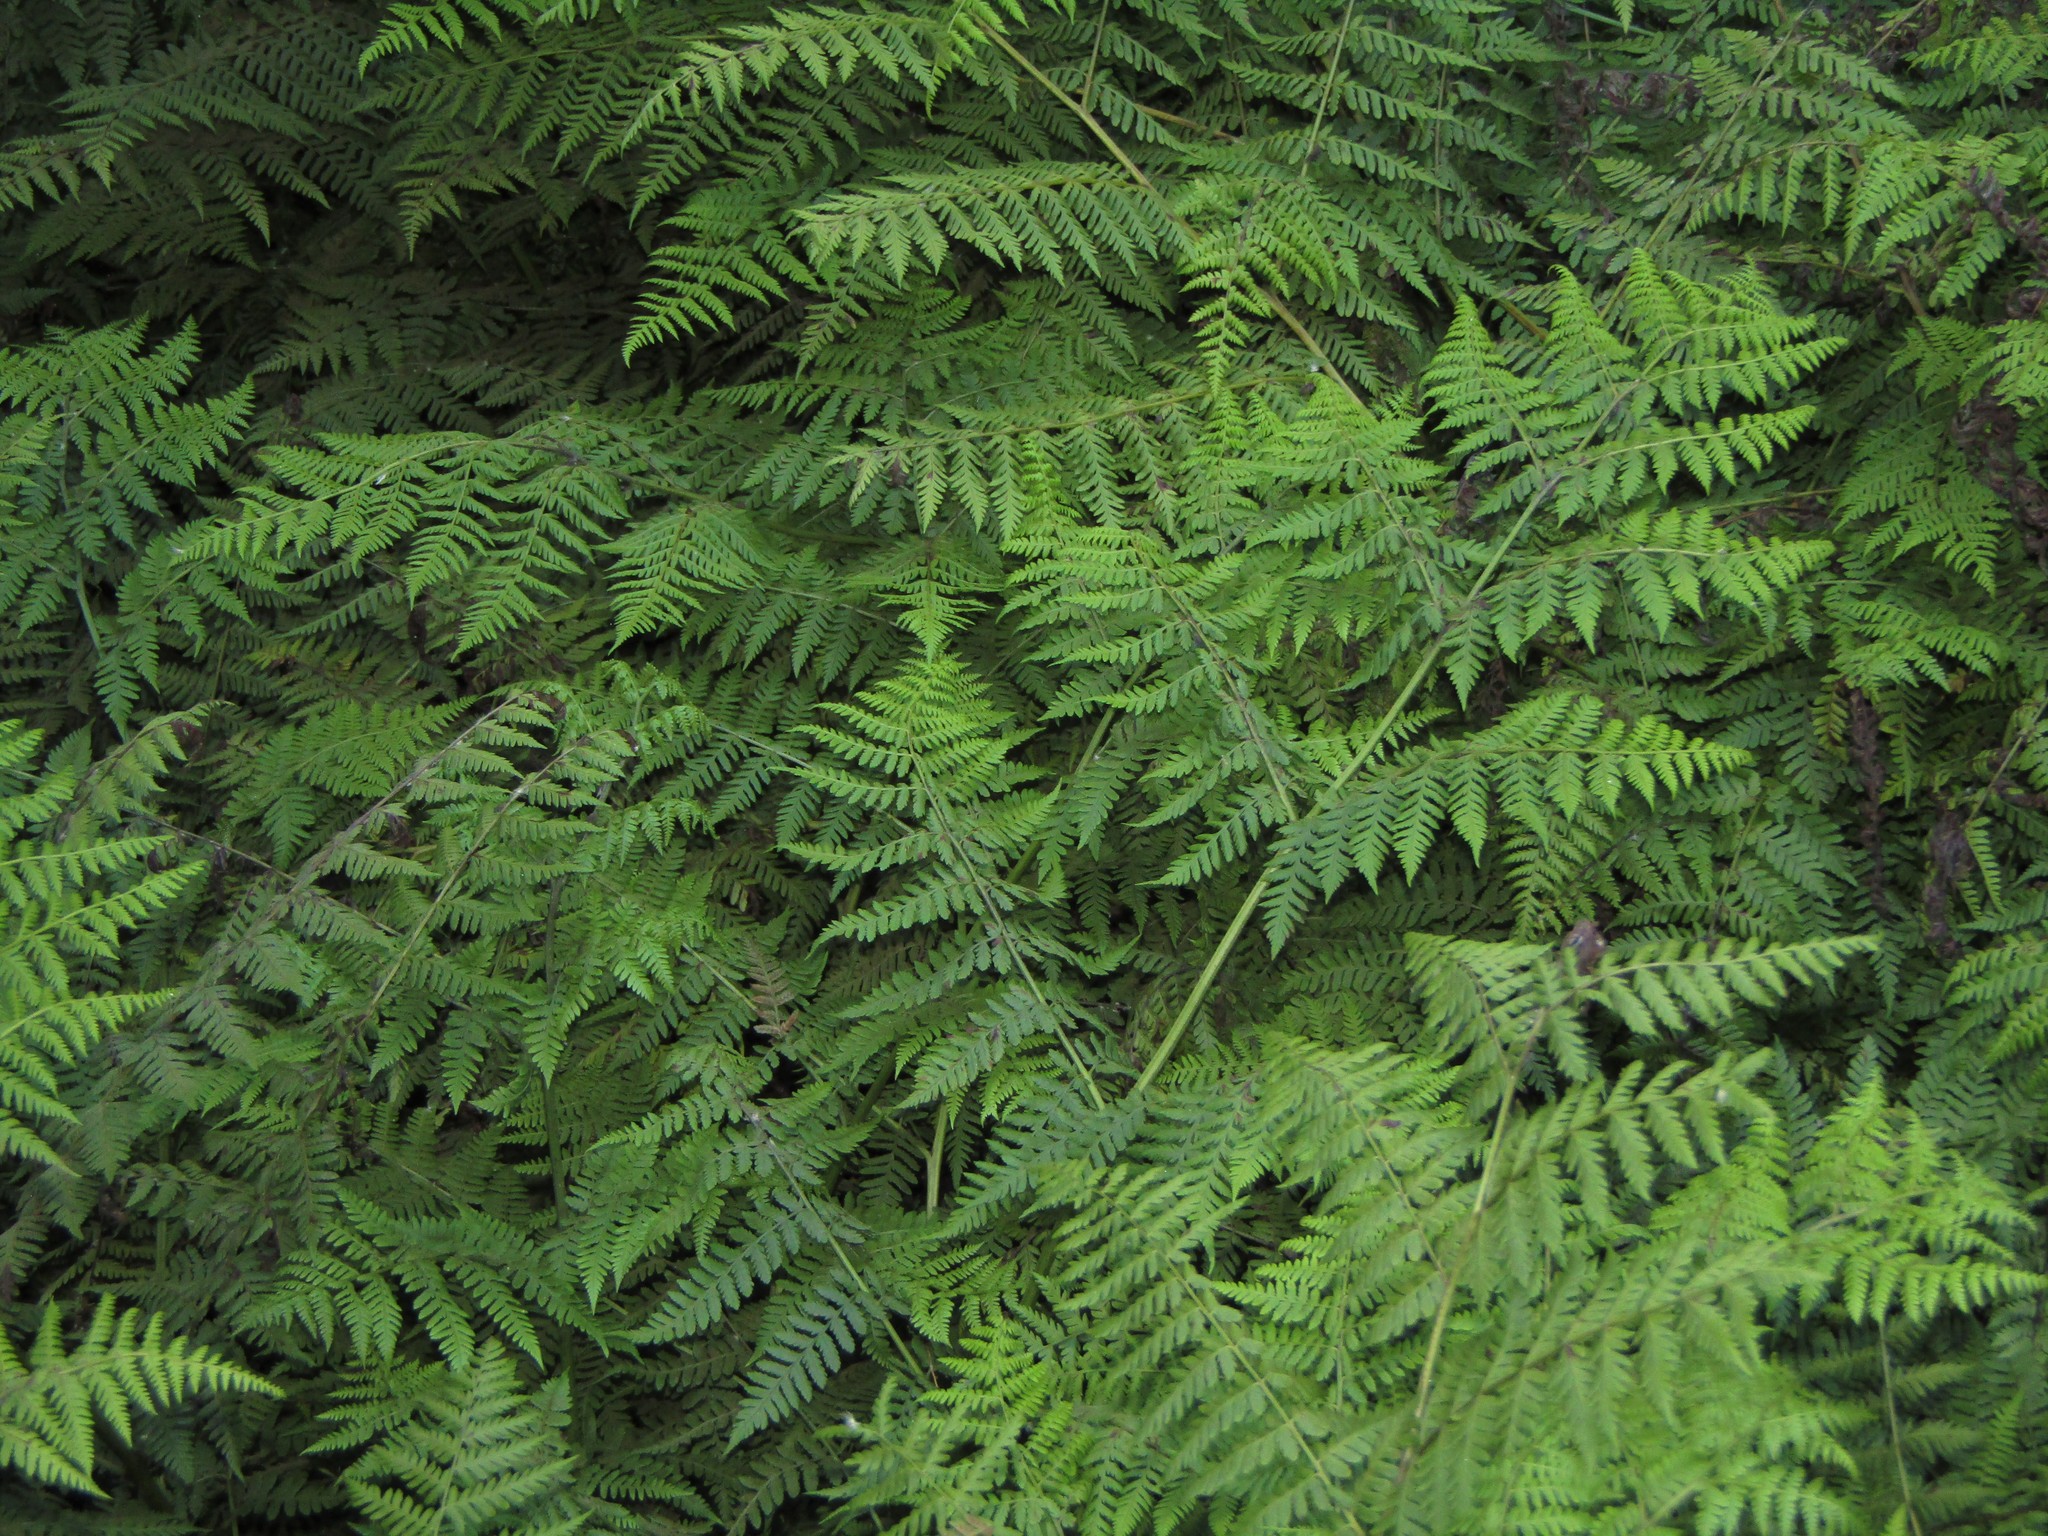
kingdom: Plantae
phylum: Tracheophyta
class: Polypodiopsida
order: Polypodiales
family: Athyriaceae
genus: Diplazium
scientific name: Diplazium australe
